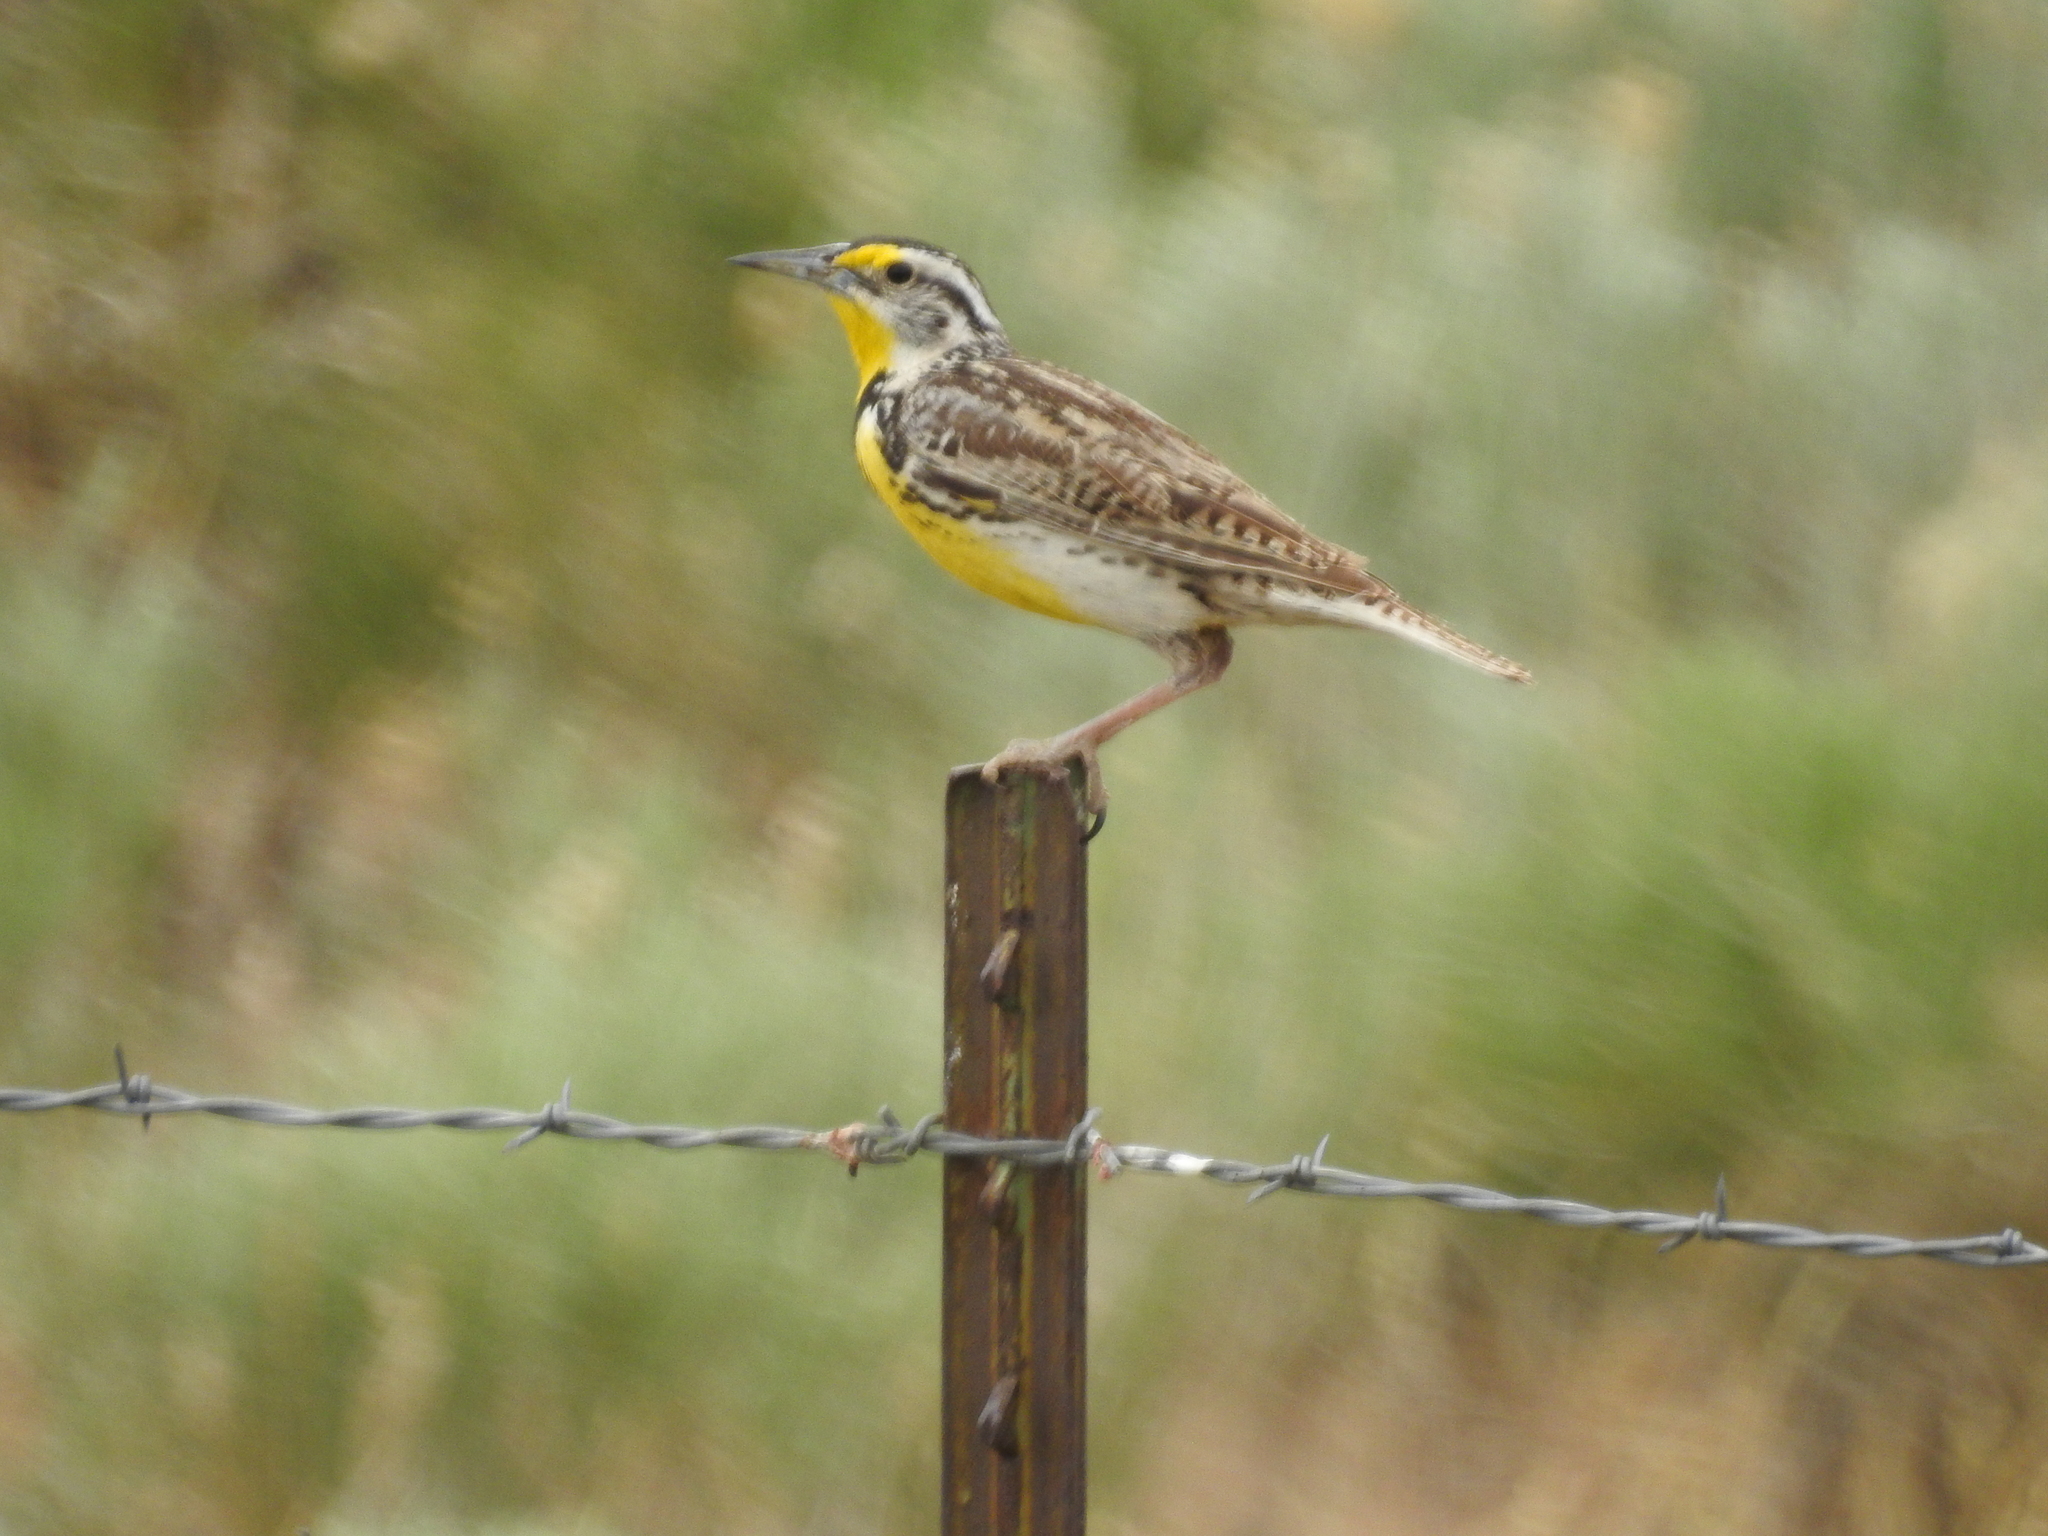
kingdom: Animalia
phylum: Chordata
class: Aves
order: Passeriformes
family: Icteridae
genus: Sturnella
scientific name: Sturnella neglecta
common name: Western meadowlark
